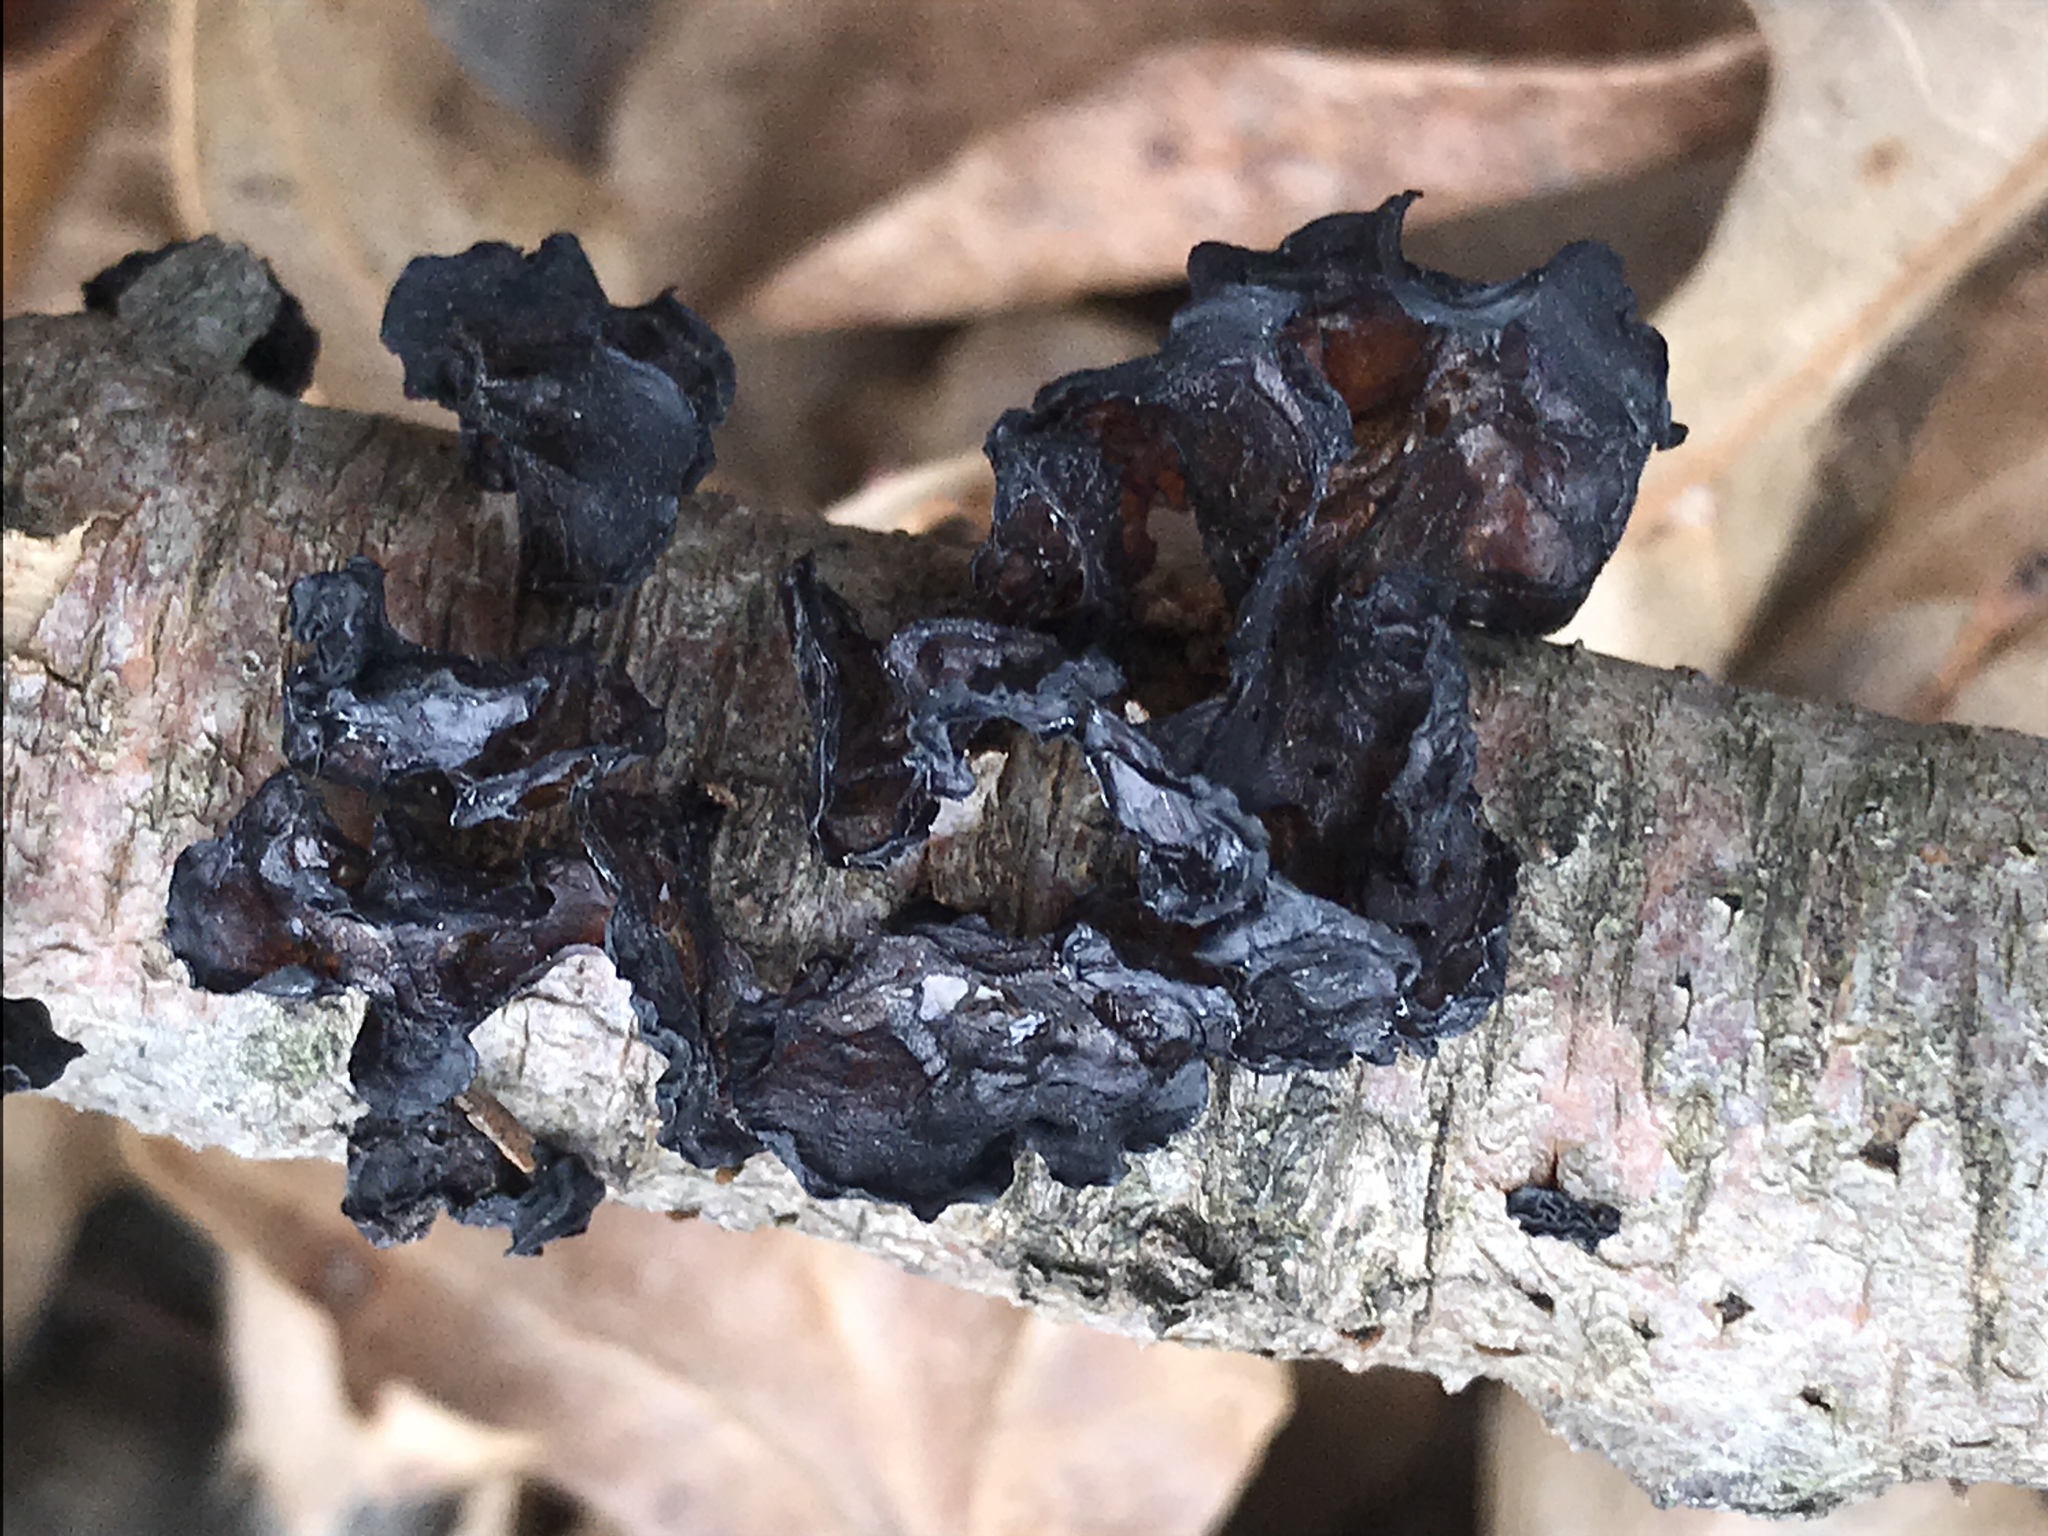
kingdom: Fungi
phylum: Basidiomycota
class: Agaricomycetes
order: Auriculariales
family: Auriculariaceae
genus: Exidia
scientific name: Exidia
